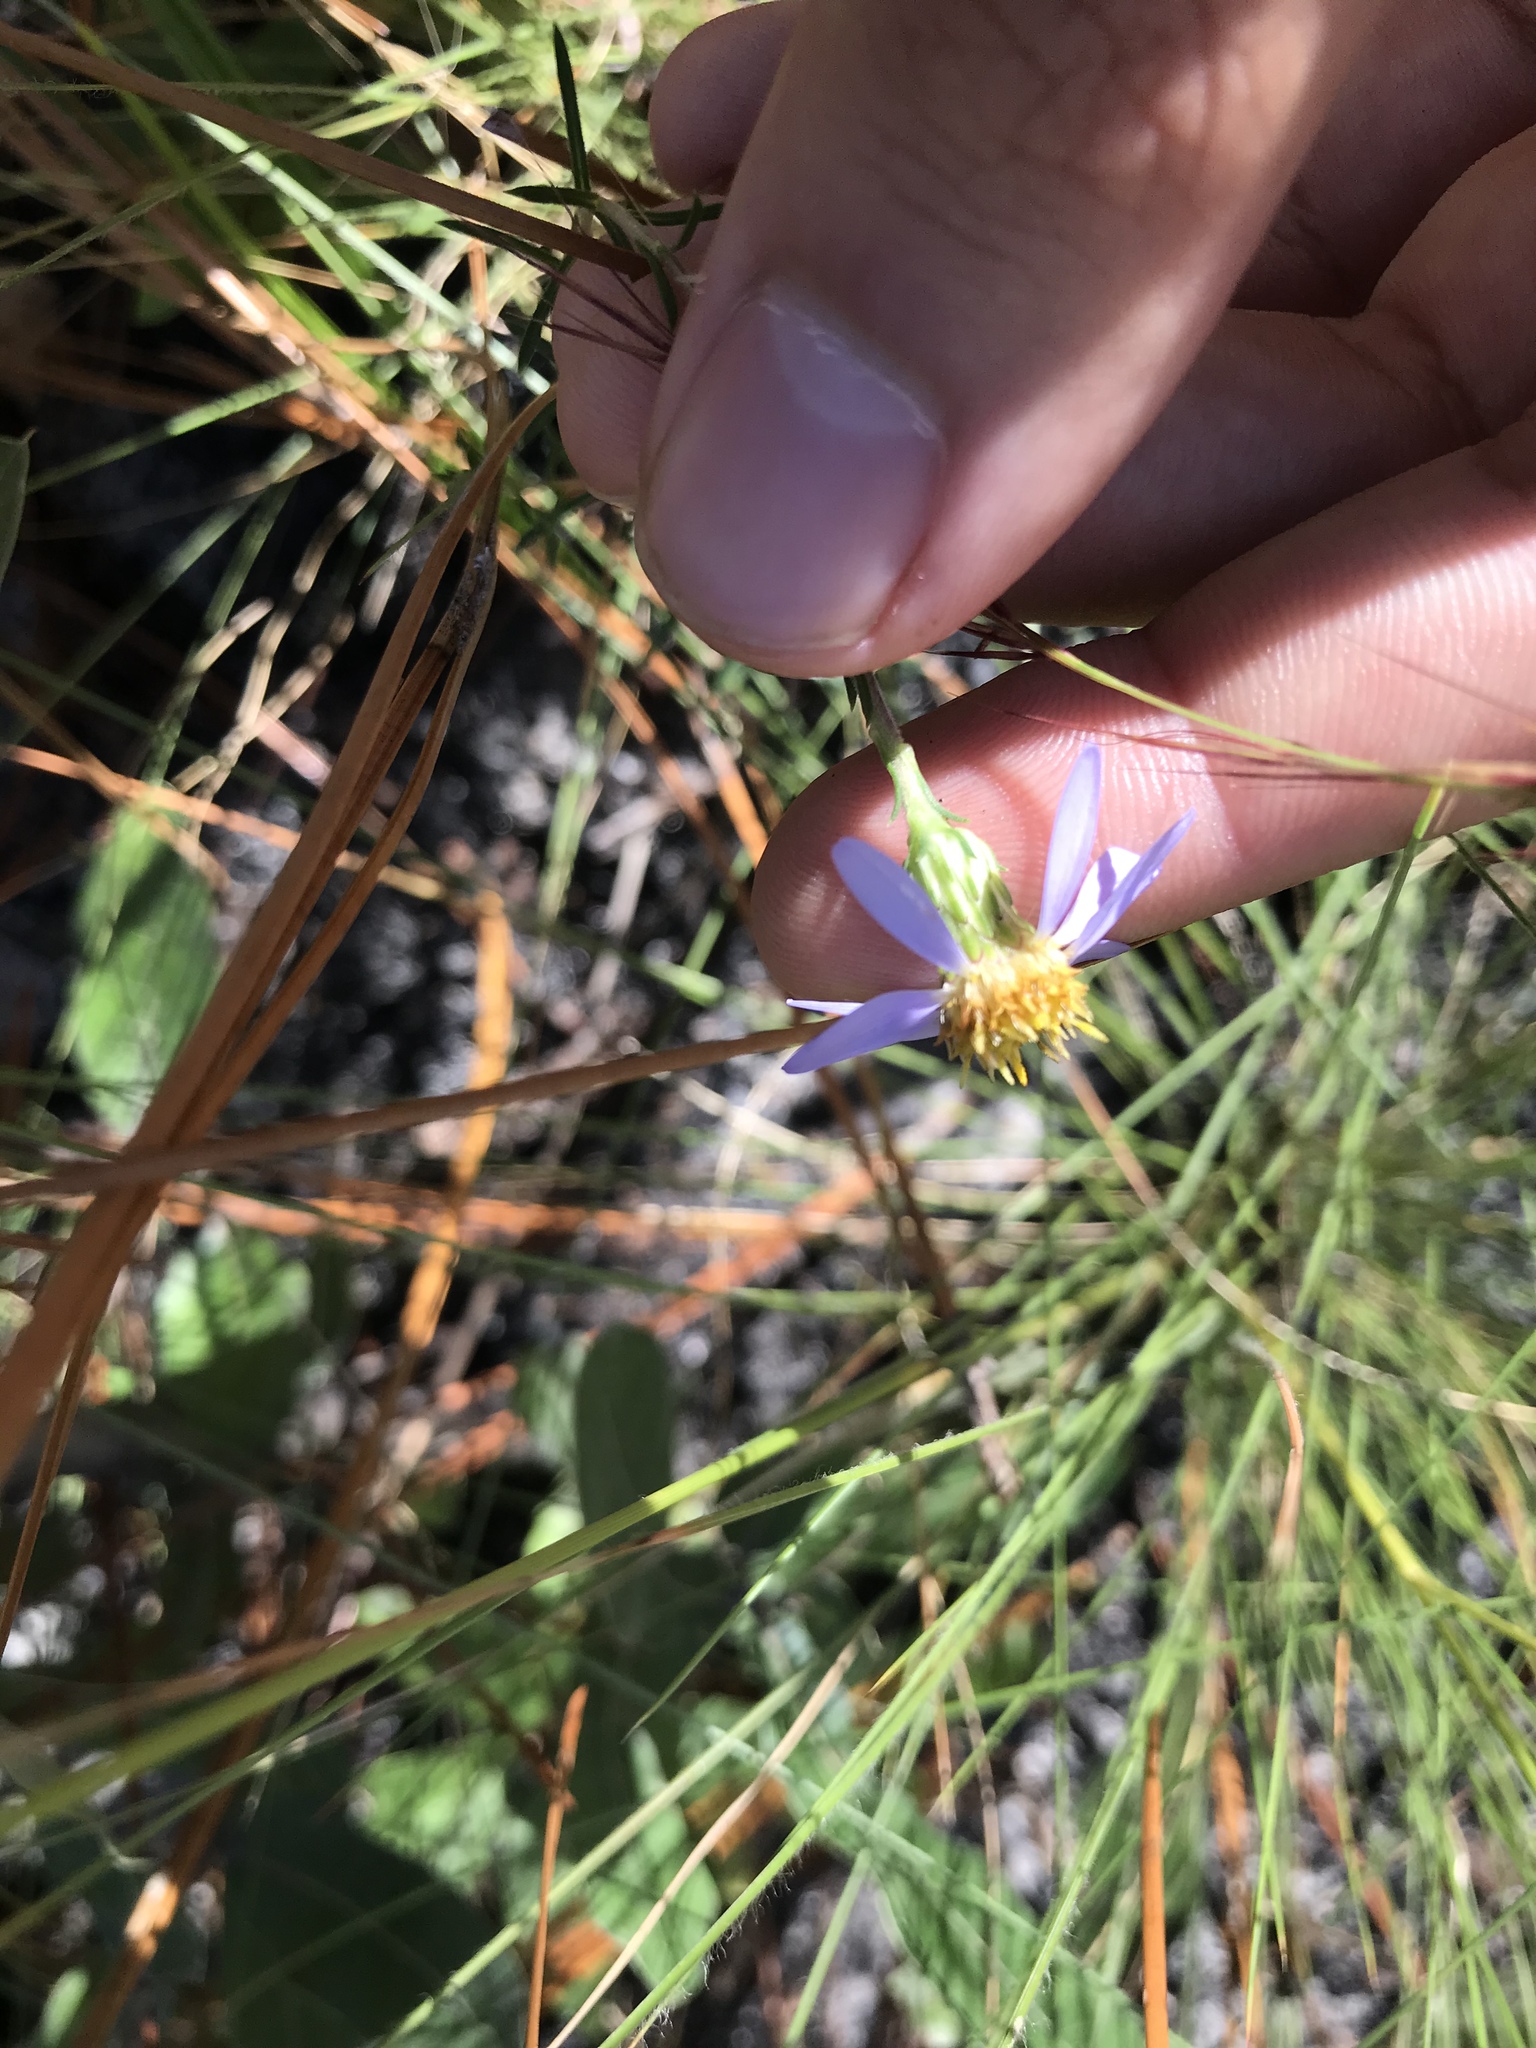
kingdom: Plantae
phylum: Tracheophyta
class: Magnoliopsida
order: Asterales
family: Asteraceae
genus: Ionactis
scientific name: Ionactis linariifolia
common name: Flax-leaf aster
